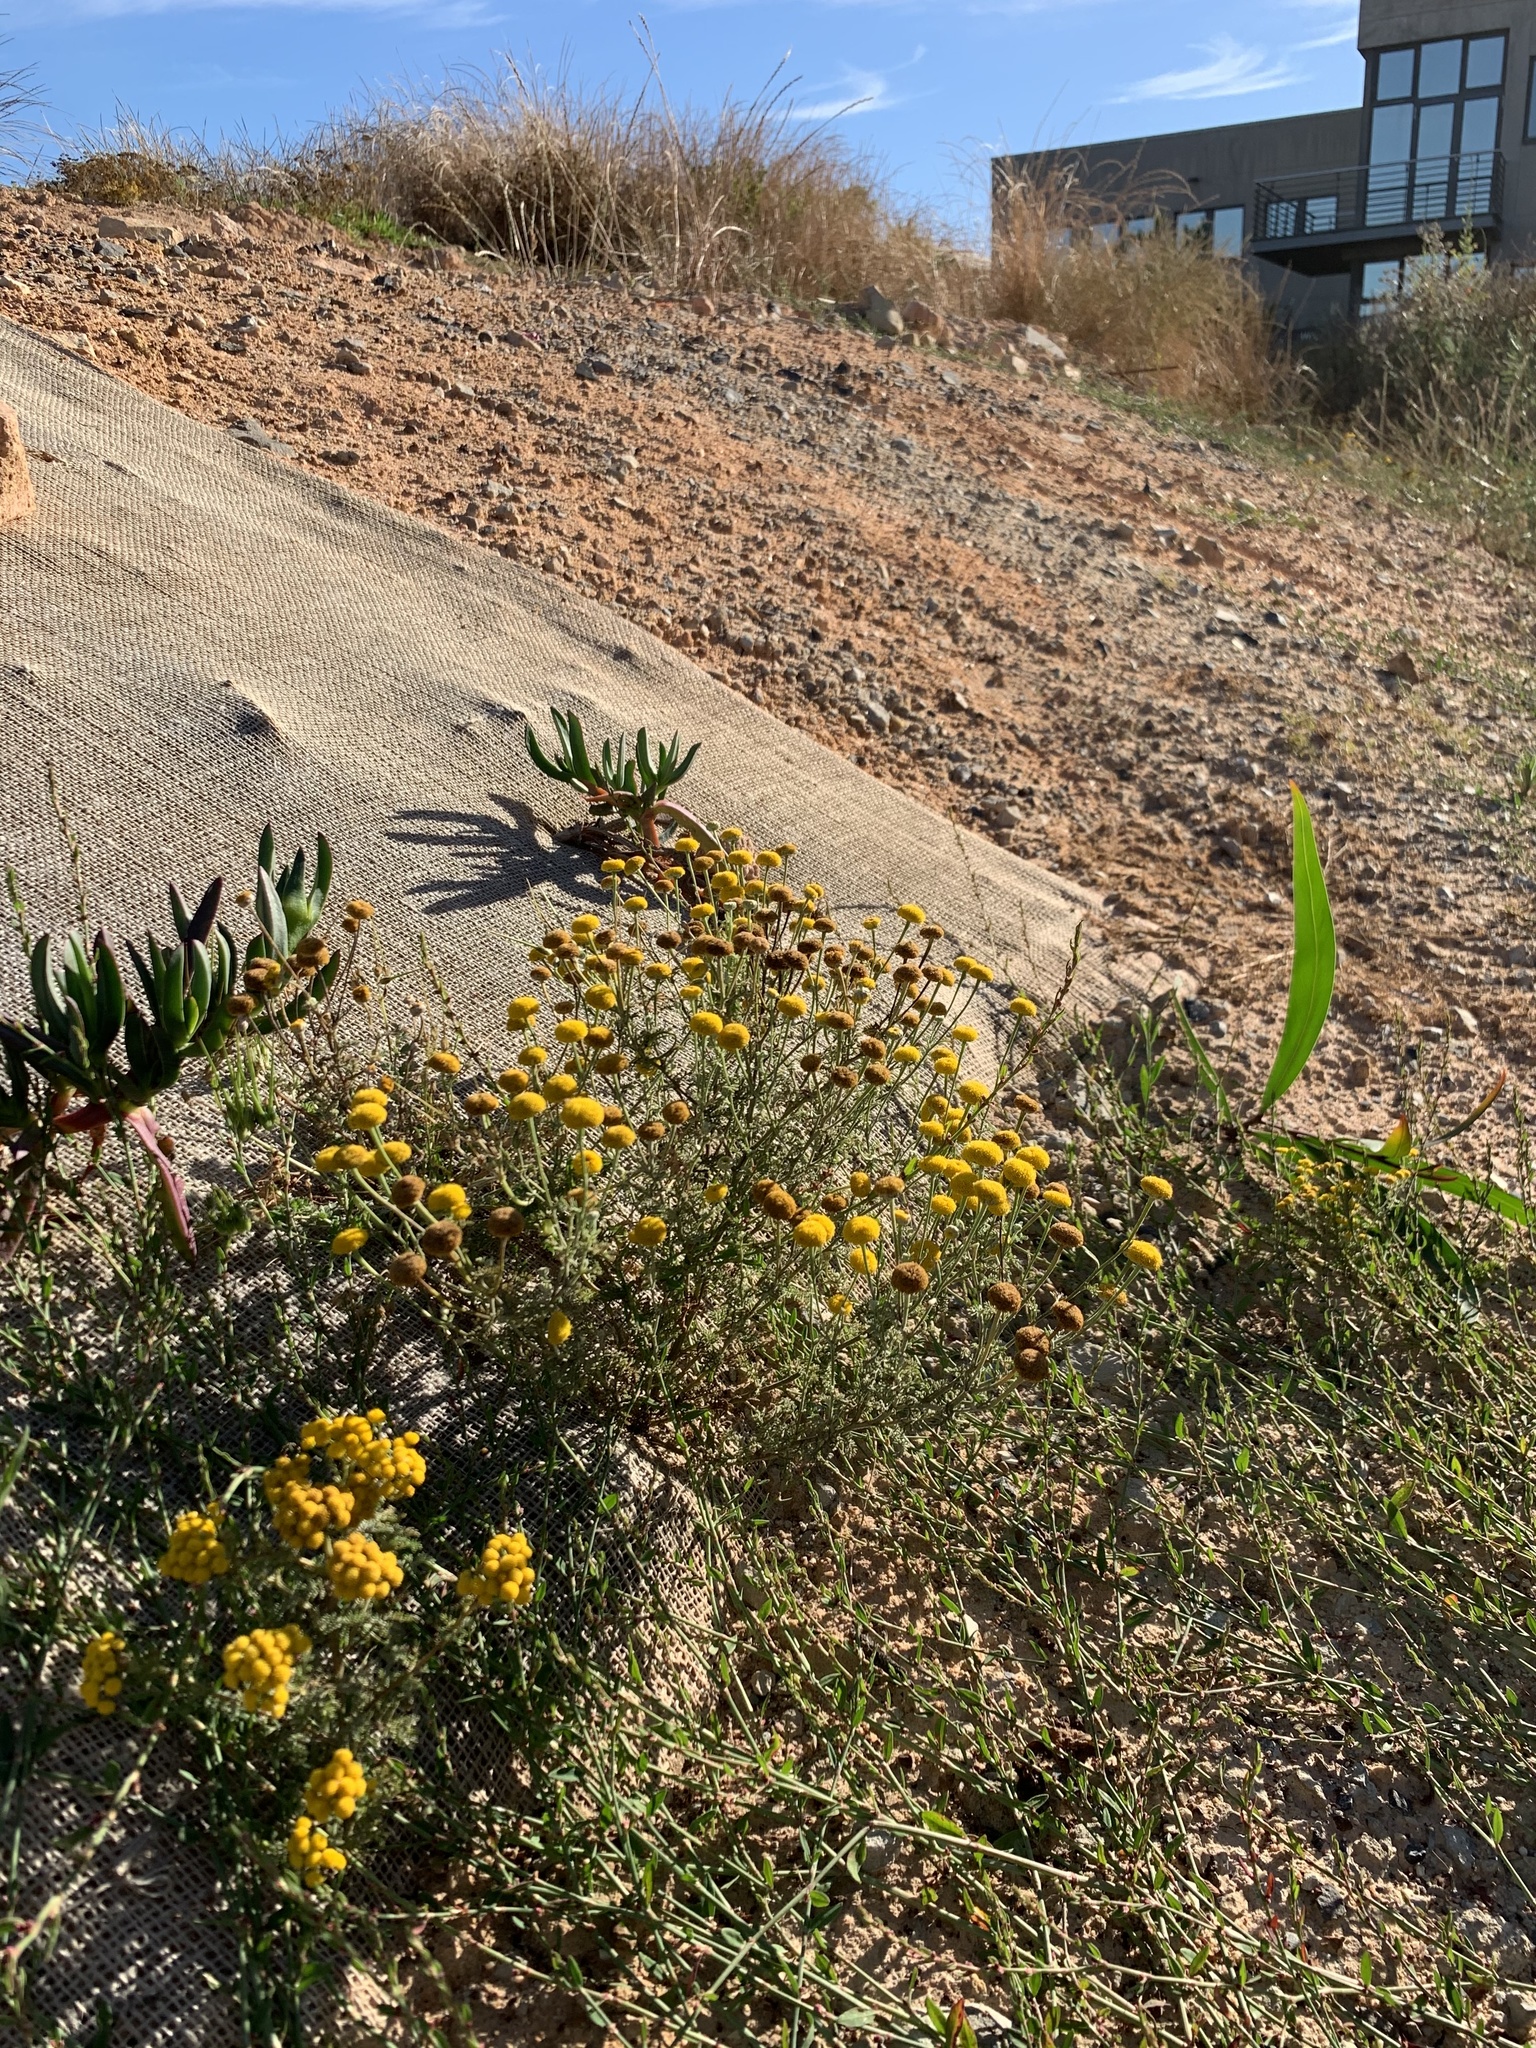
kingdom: Plantae
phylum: Tracheophyta
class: Magnoliopsida
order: Asterales
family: Asteraceae
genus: Cotula
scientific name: Cotula pruinosa
